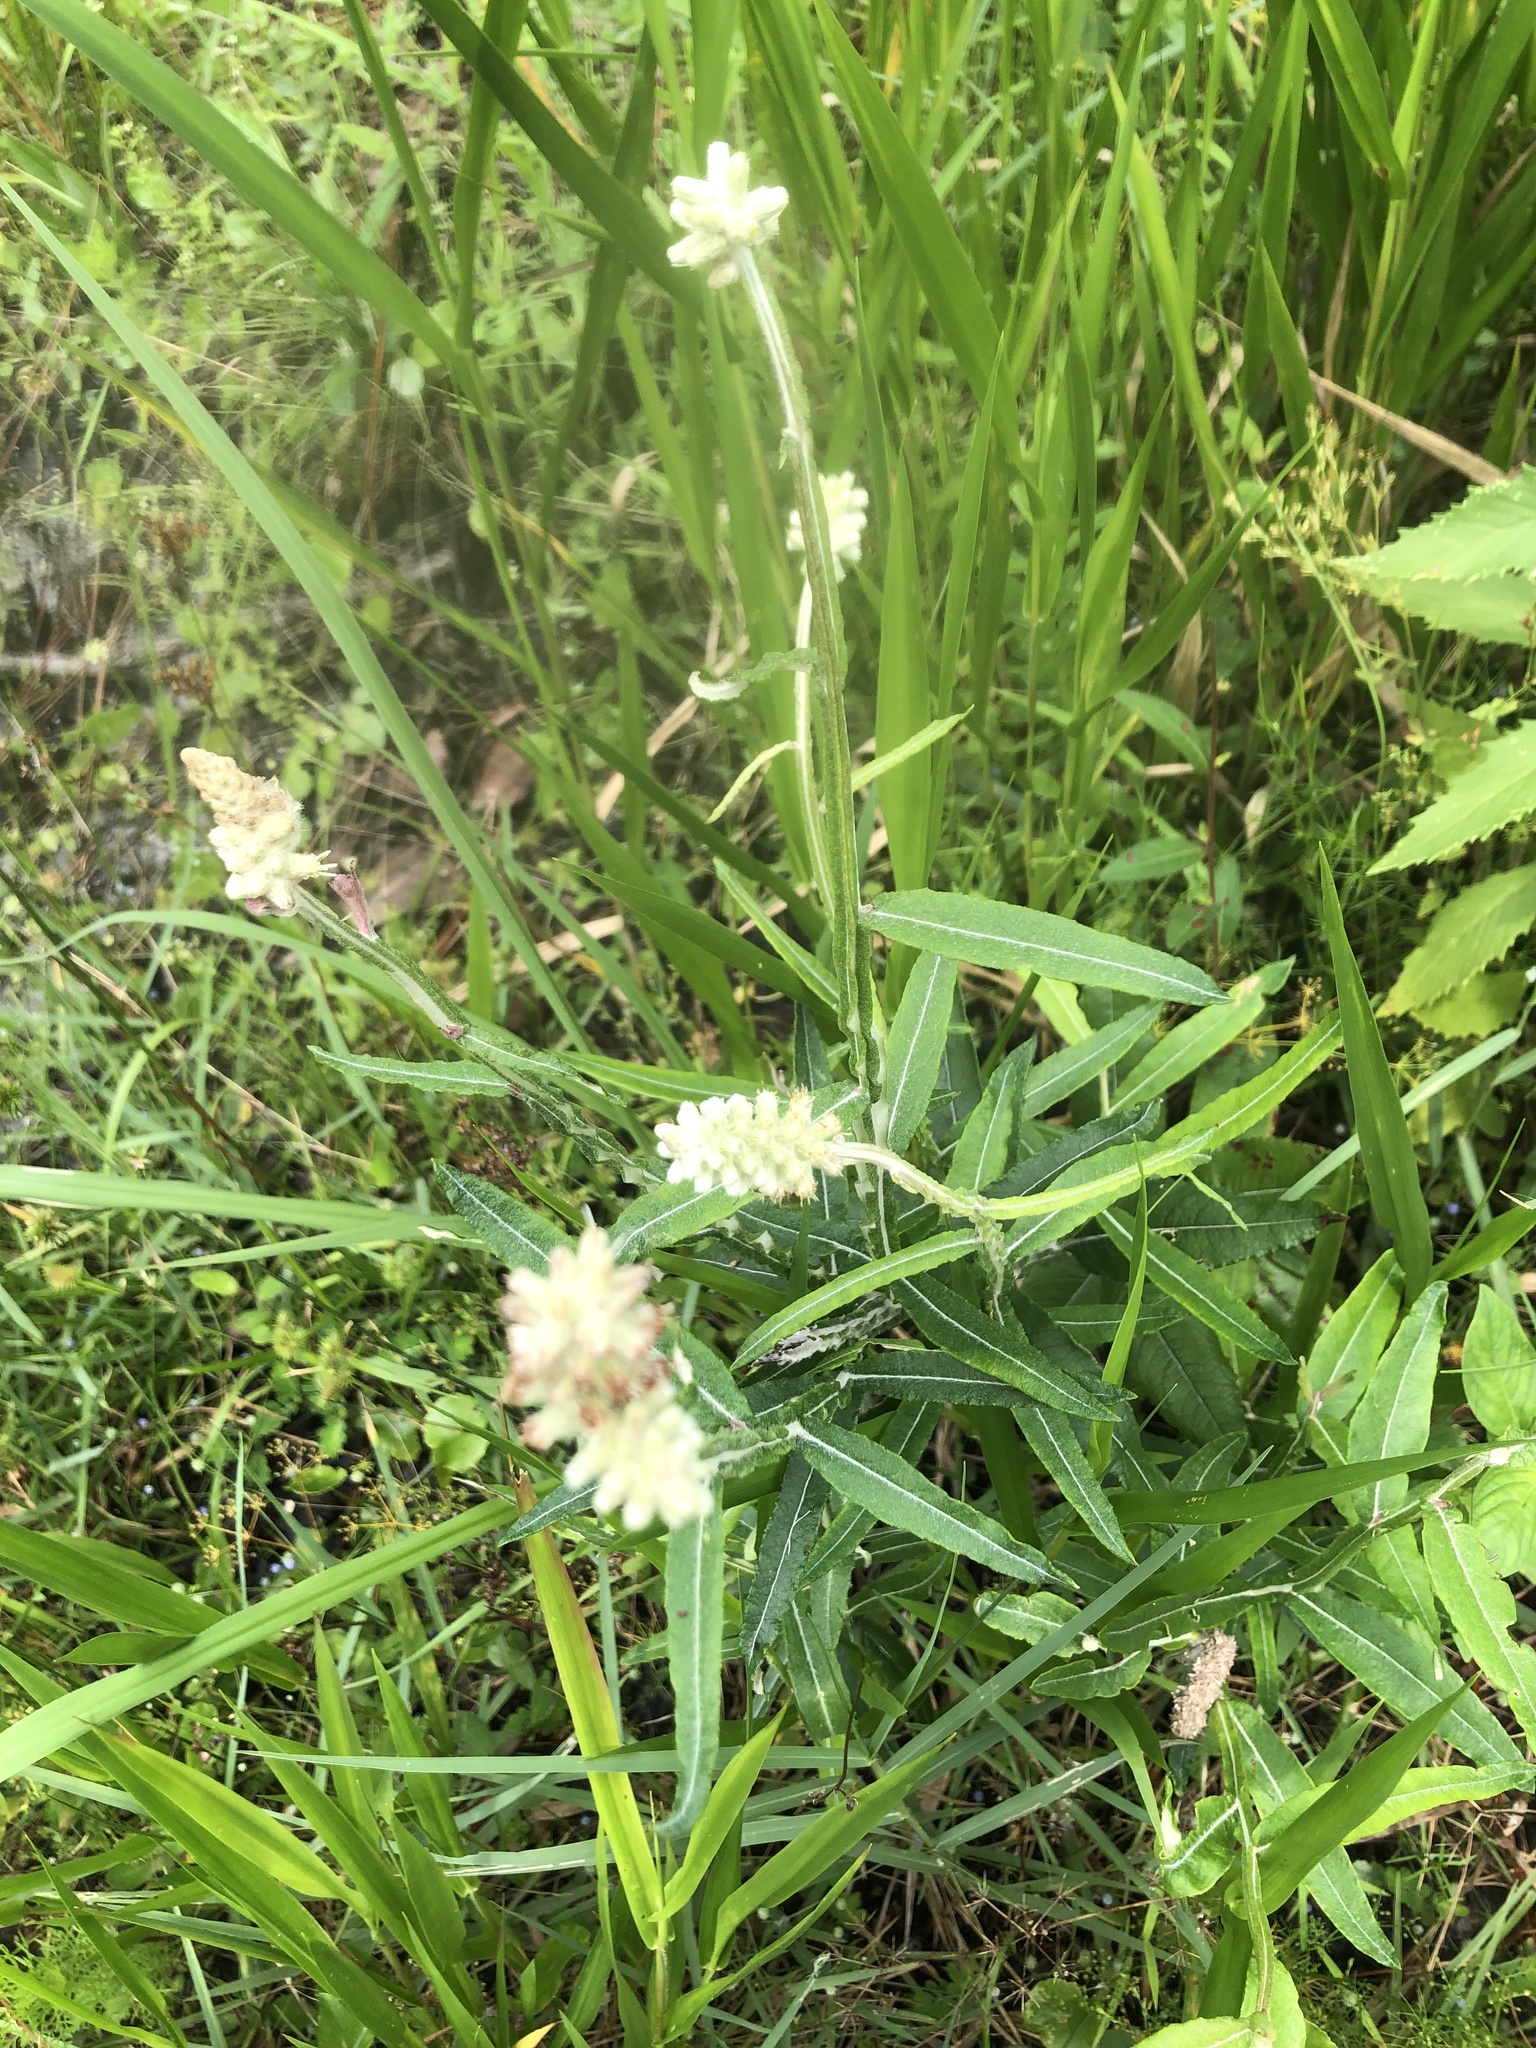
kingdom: Plantae
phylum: Tracheophyta
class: Magnoliopsida
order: Asterales
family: Asteraceae
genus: Pterocaulon
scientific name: Pterocaulon pycnostachyum
